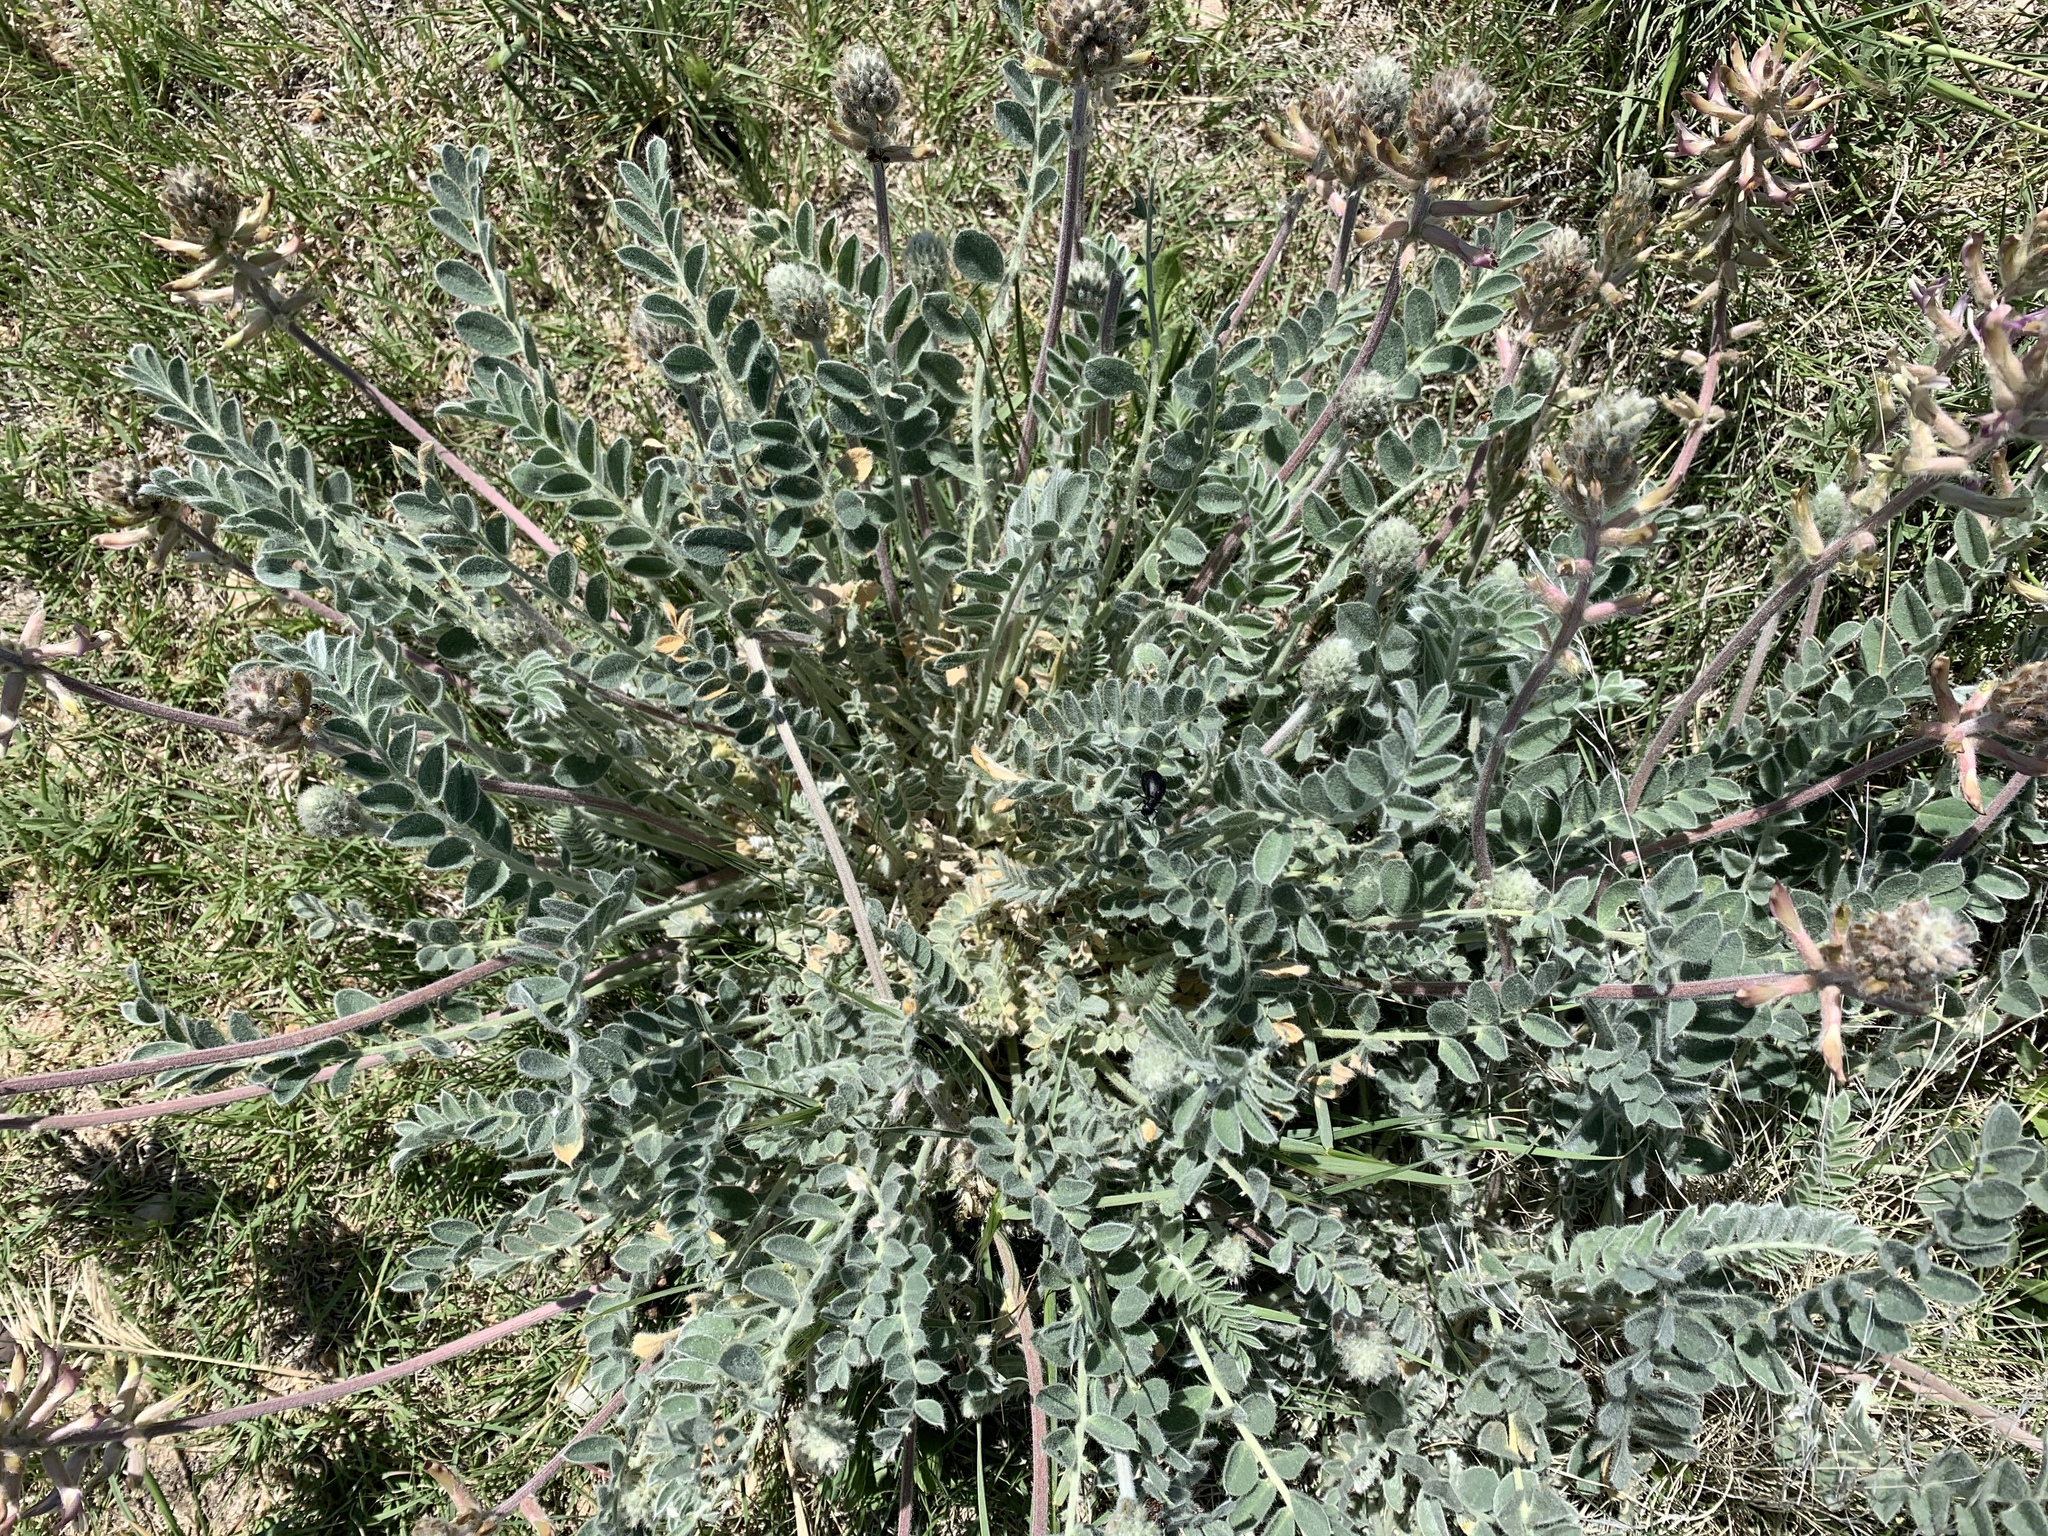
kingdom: Plantae
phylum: Tracheophyta
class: Magnoliopsida
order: Fabales
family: Fabaceae
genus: Astragalus
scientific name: Astragalus mollissimus
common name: Woolly locoweed
